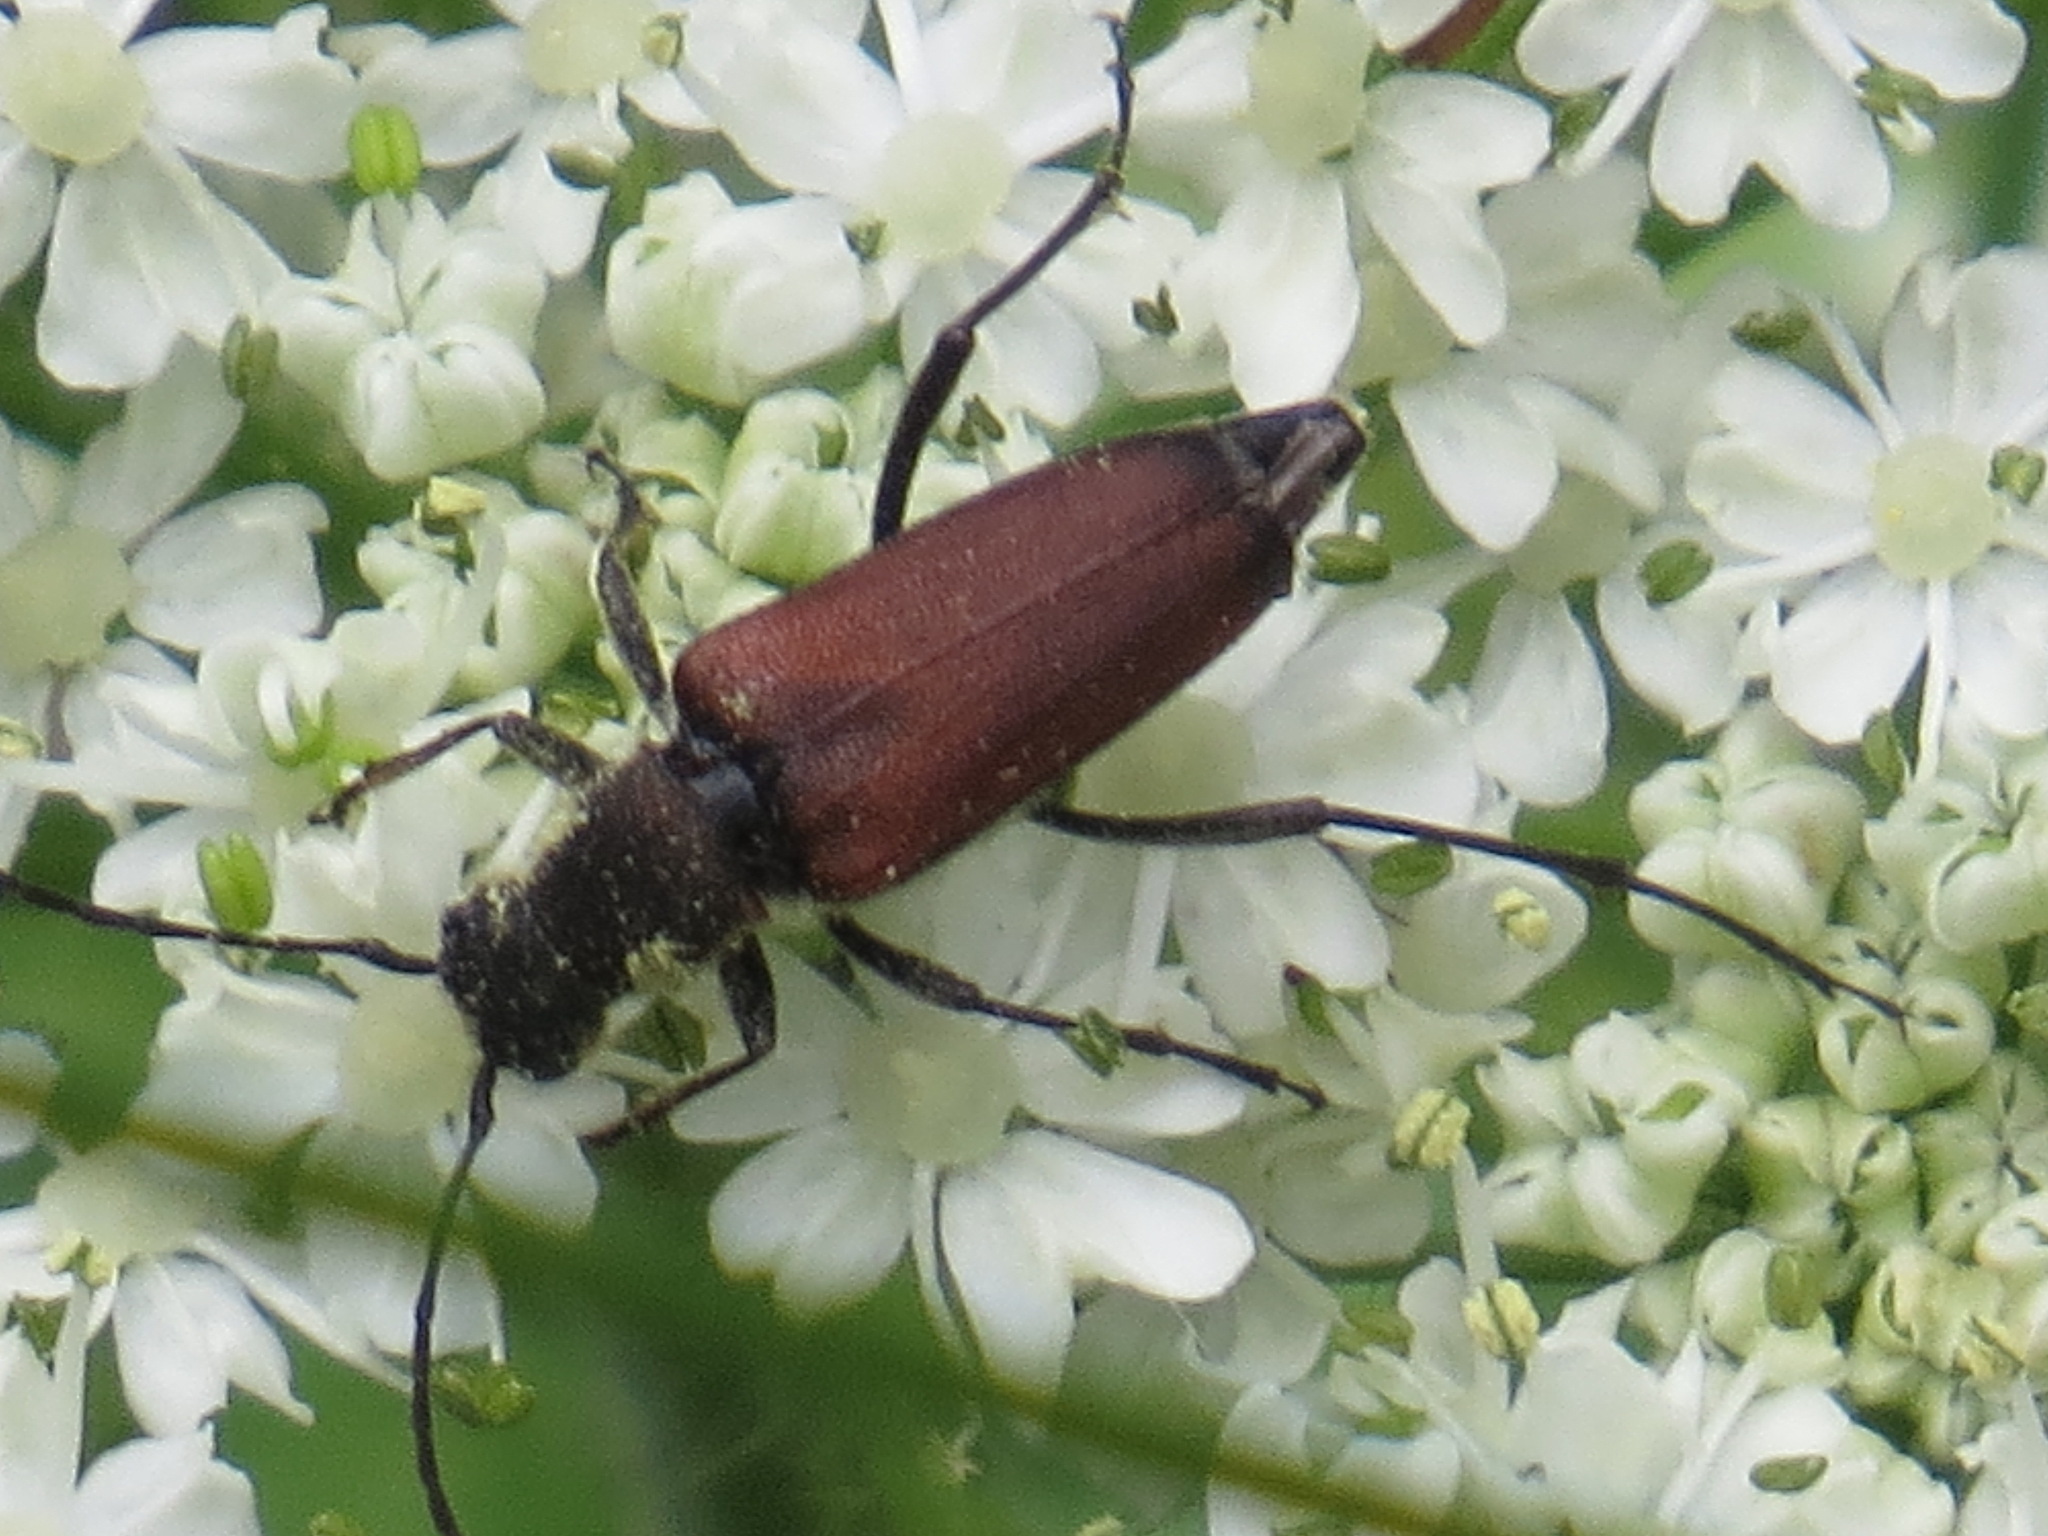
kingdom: Animalia
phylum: Arthropoda
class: Insecta
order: Coleoptera
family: Cerambycidae
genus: Anastrangalia
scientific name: Anastrangalia sanguinea
